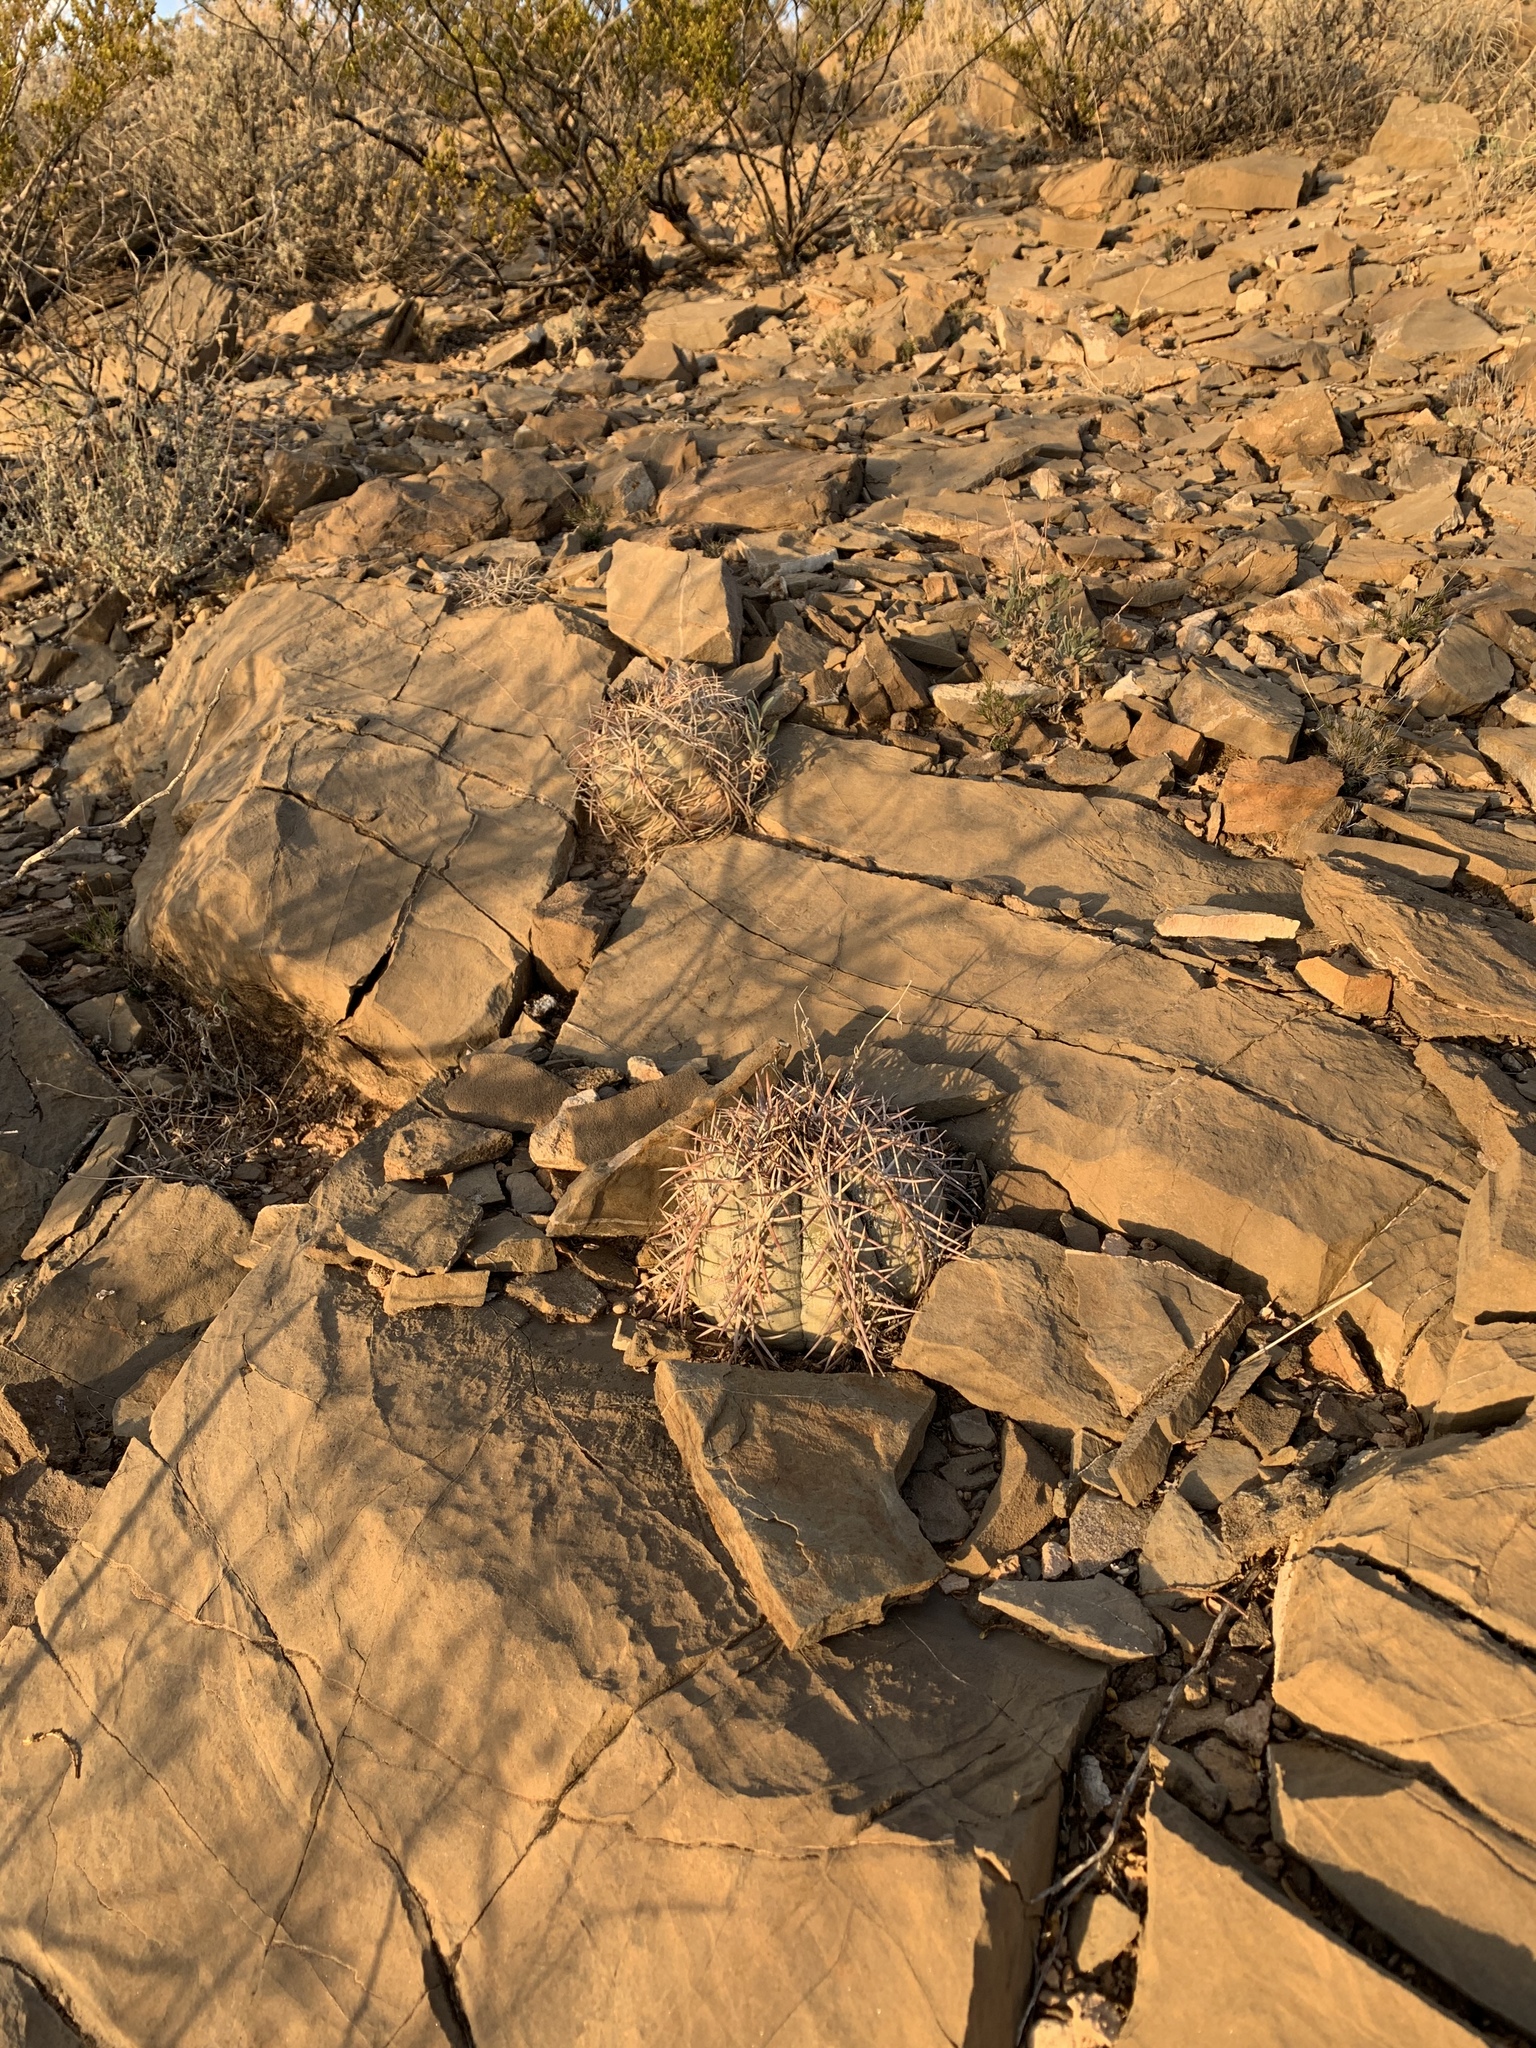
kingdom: Plantae
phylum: Tracheophyta
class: Magnoliopsida
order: Caryophyllales
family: Cactaceae
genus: Echinocactus
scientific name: Echinocactus horizonthalonius
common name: Devilshead
